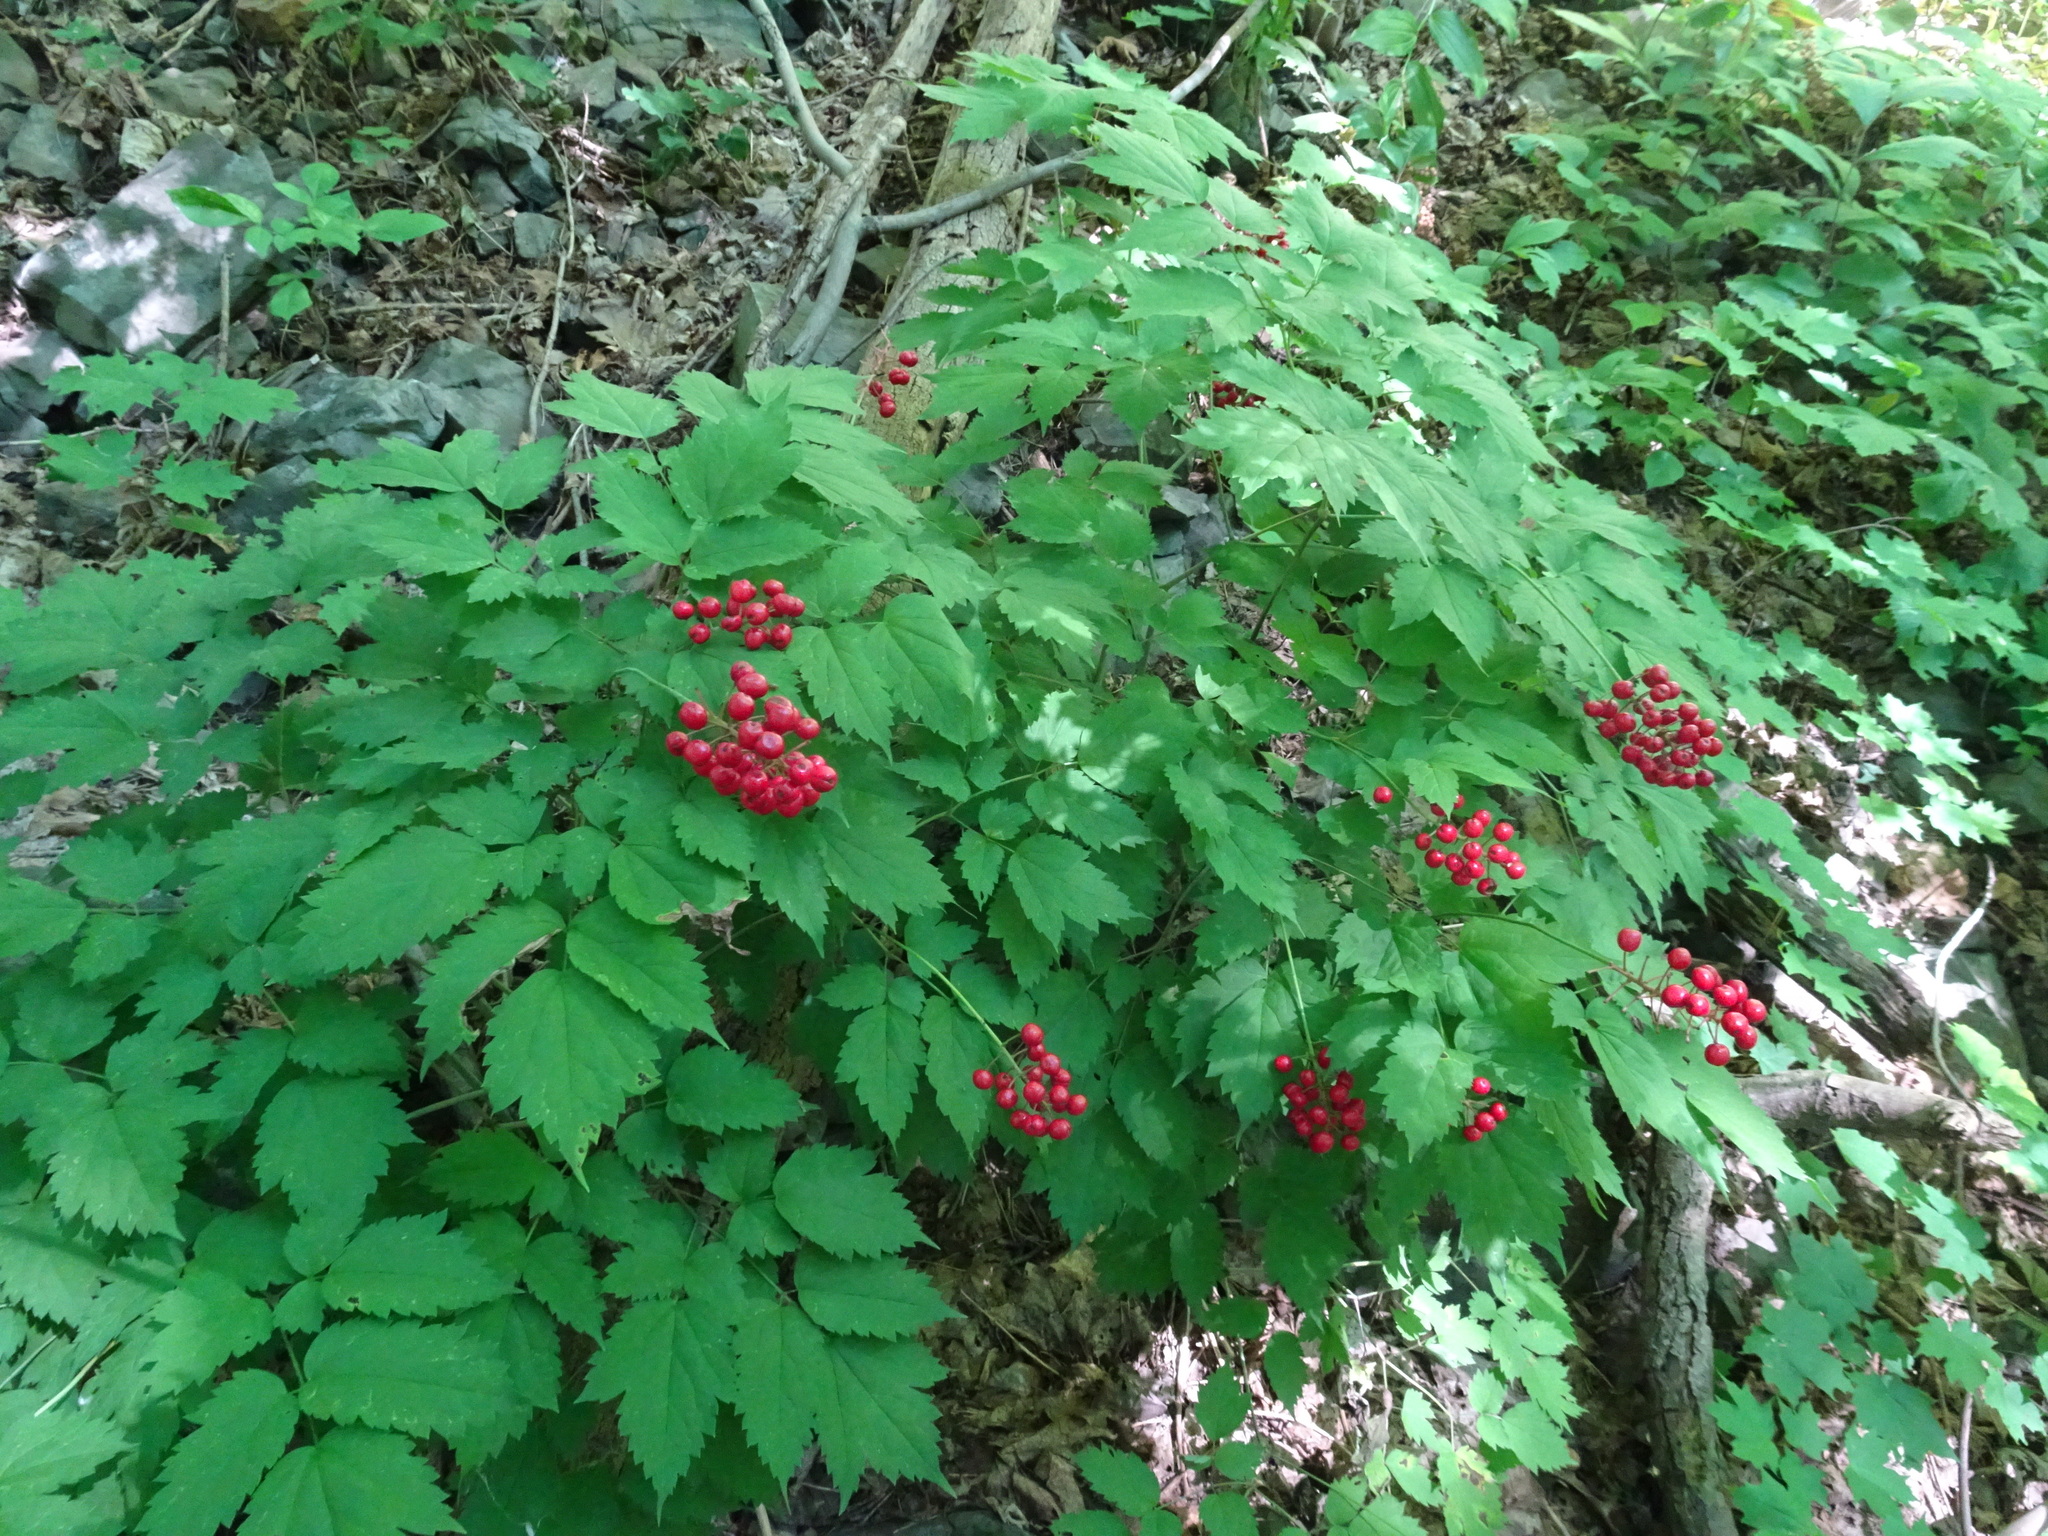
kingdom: Plantae
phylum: Tracheophyta
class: Magnoliopsida
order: Ranunculales
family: Ranunculaceae
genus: Actaea
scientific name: Actaea rubra
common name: Red baneberry
